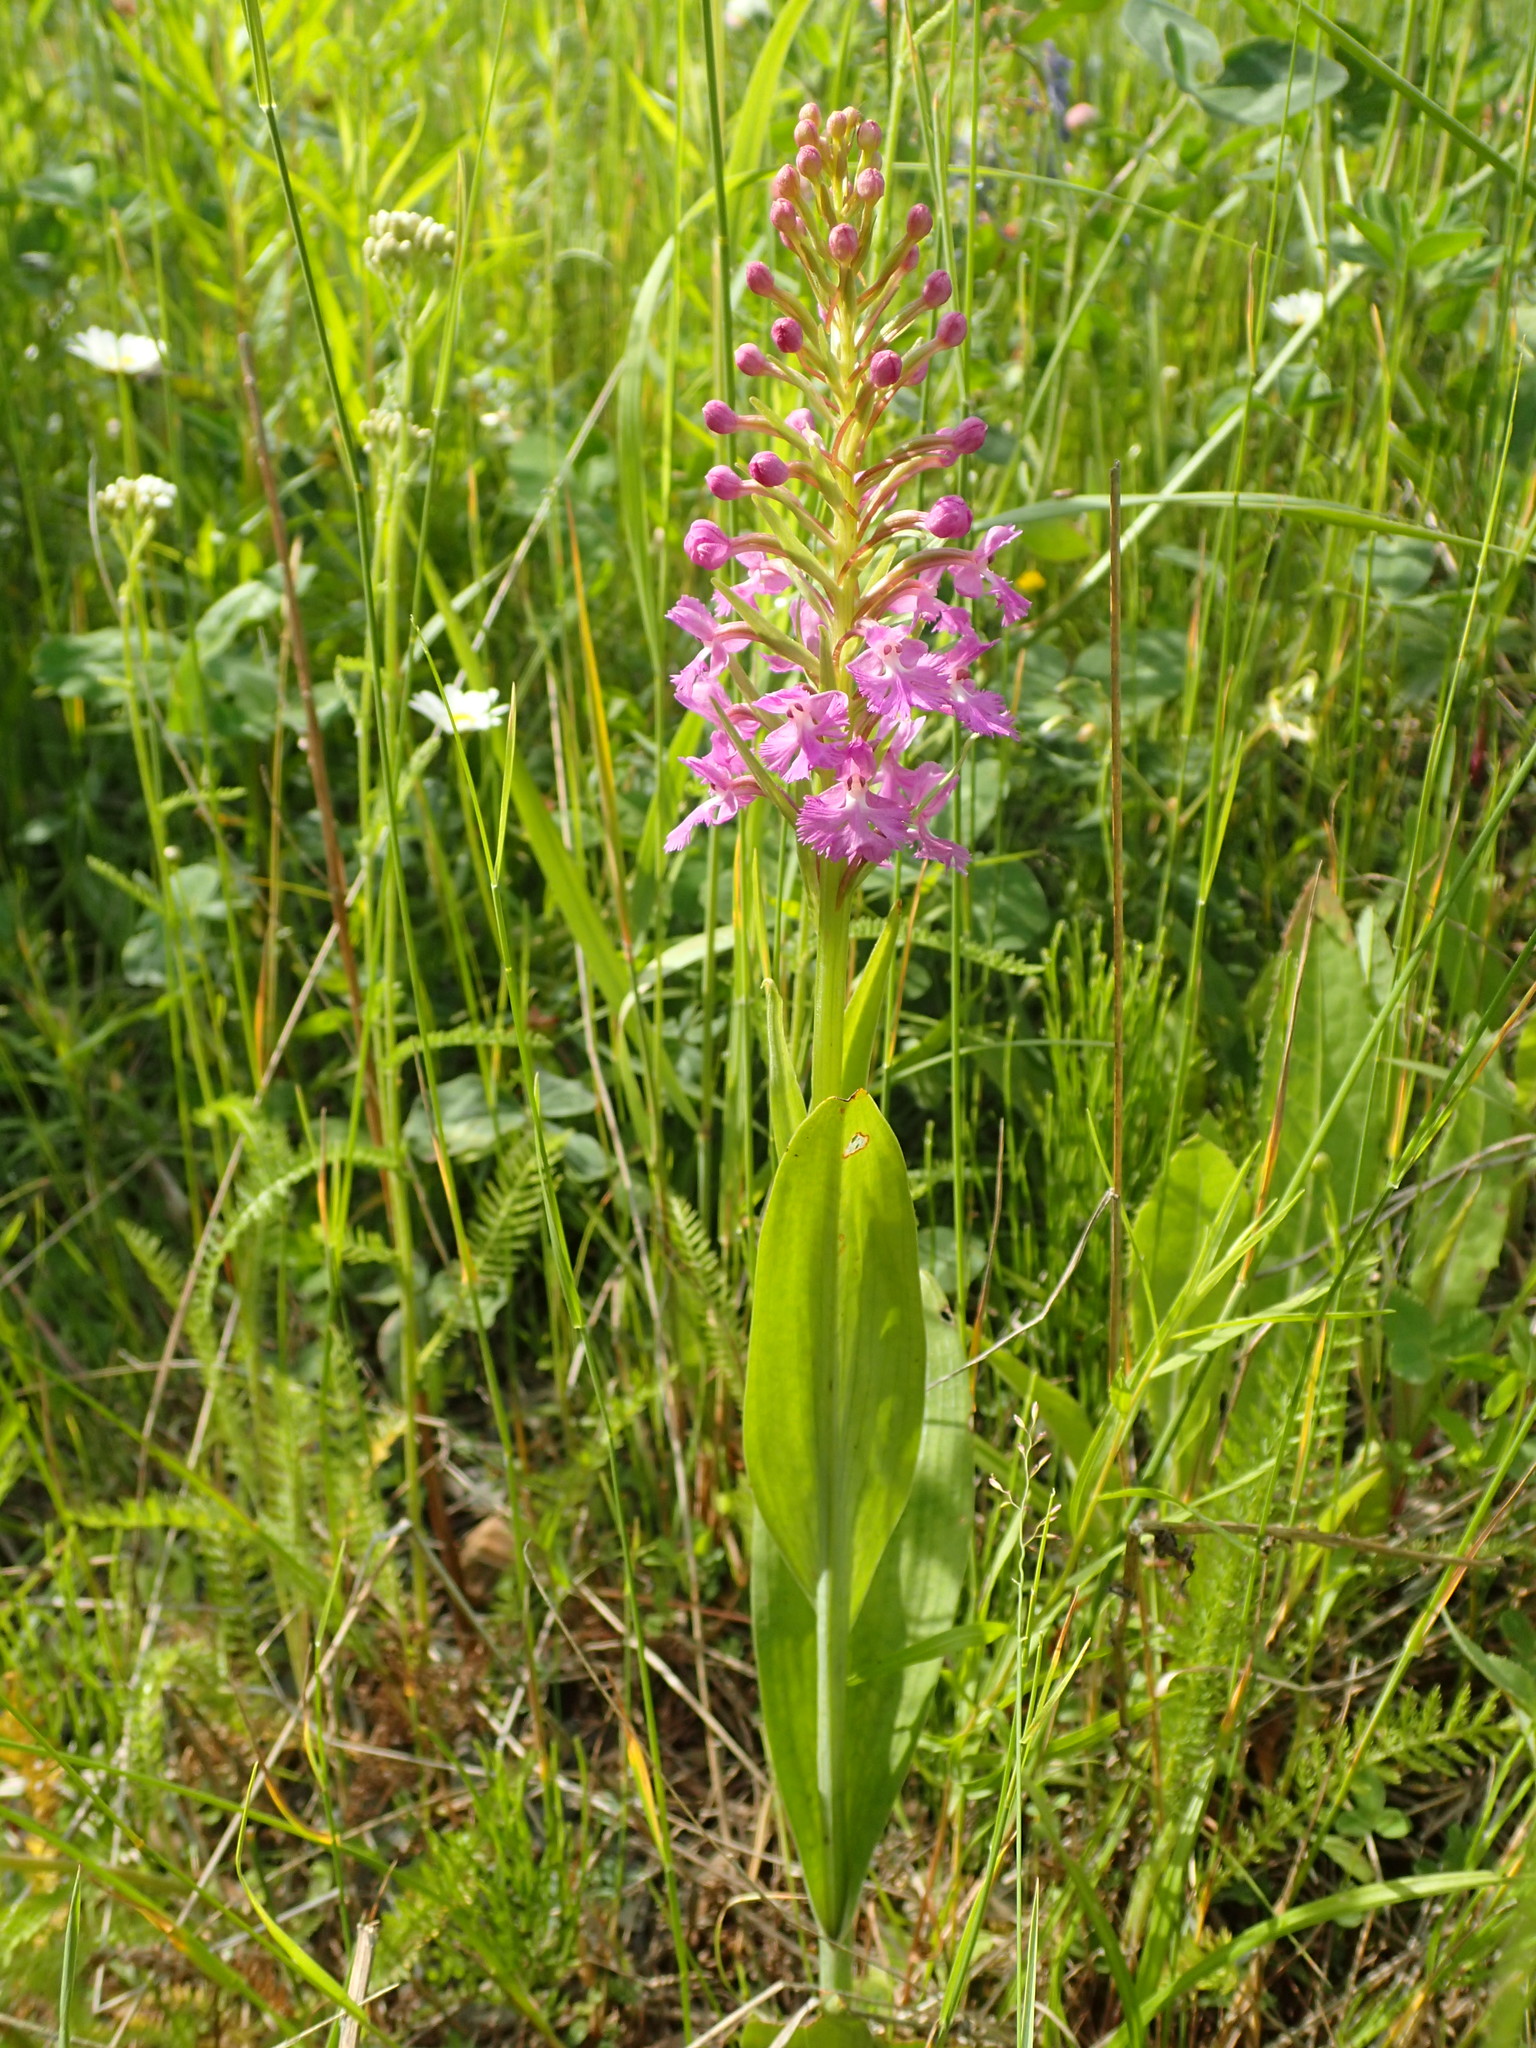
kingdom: Plantae
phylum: Tracheophyta
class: Liliopsida
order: Asparagales
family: Orchidaceae
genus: Platanthera
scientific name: Platanthera psycodes
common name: Lesser purple fringed orchid
